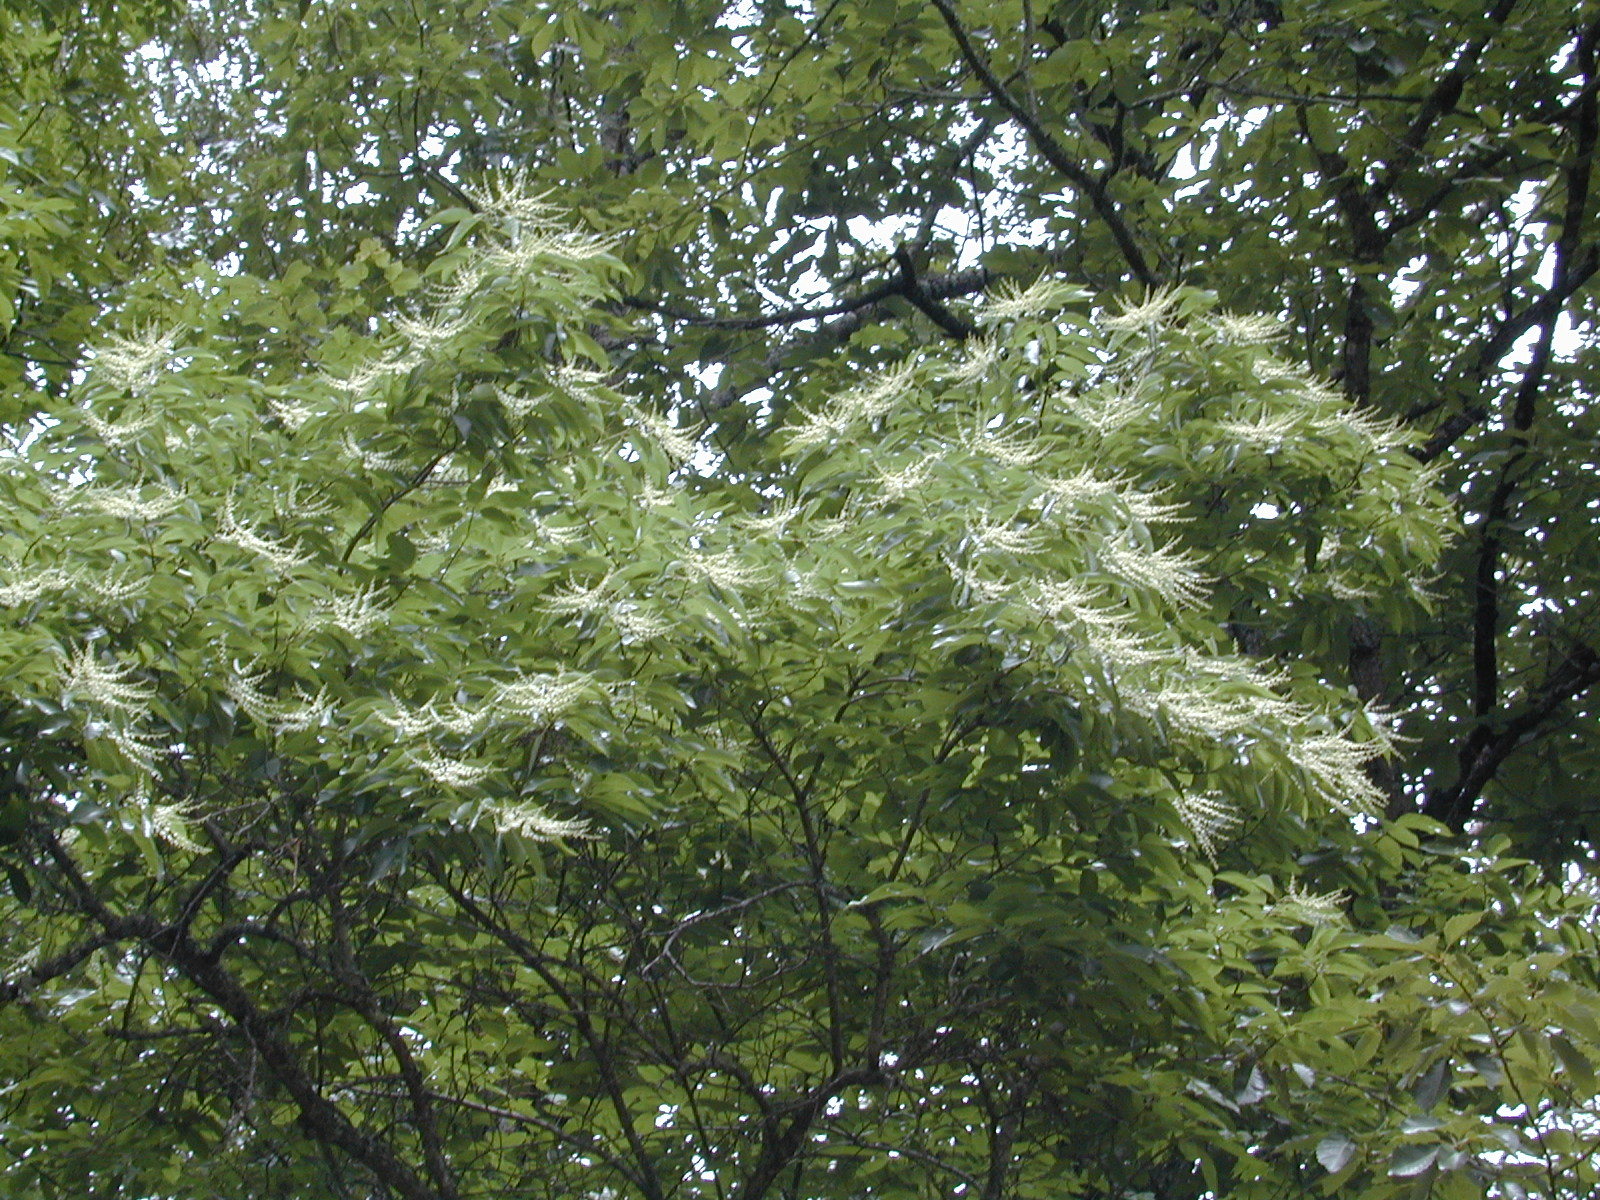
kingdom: Plantae
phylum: Tracheophyta
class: Magnoliopsida
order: Ericales
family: Ericaceae
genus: Oxydendrum
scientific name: Oxydendrum arboreum
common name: Sourwood
